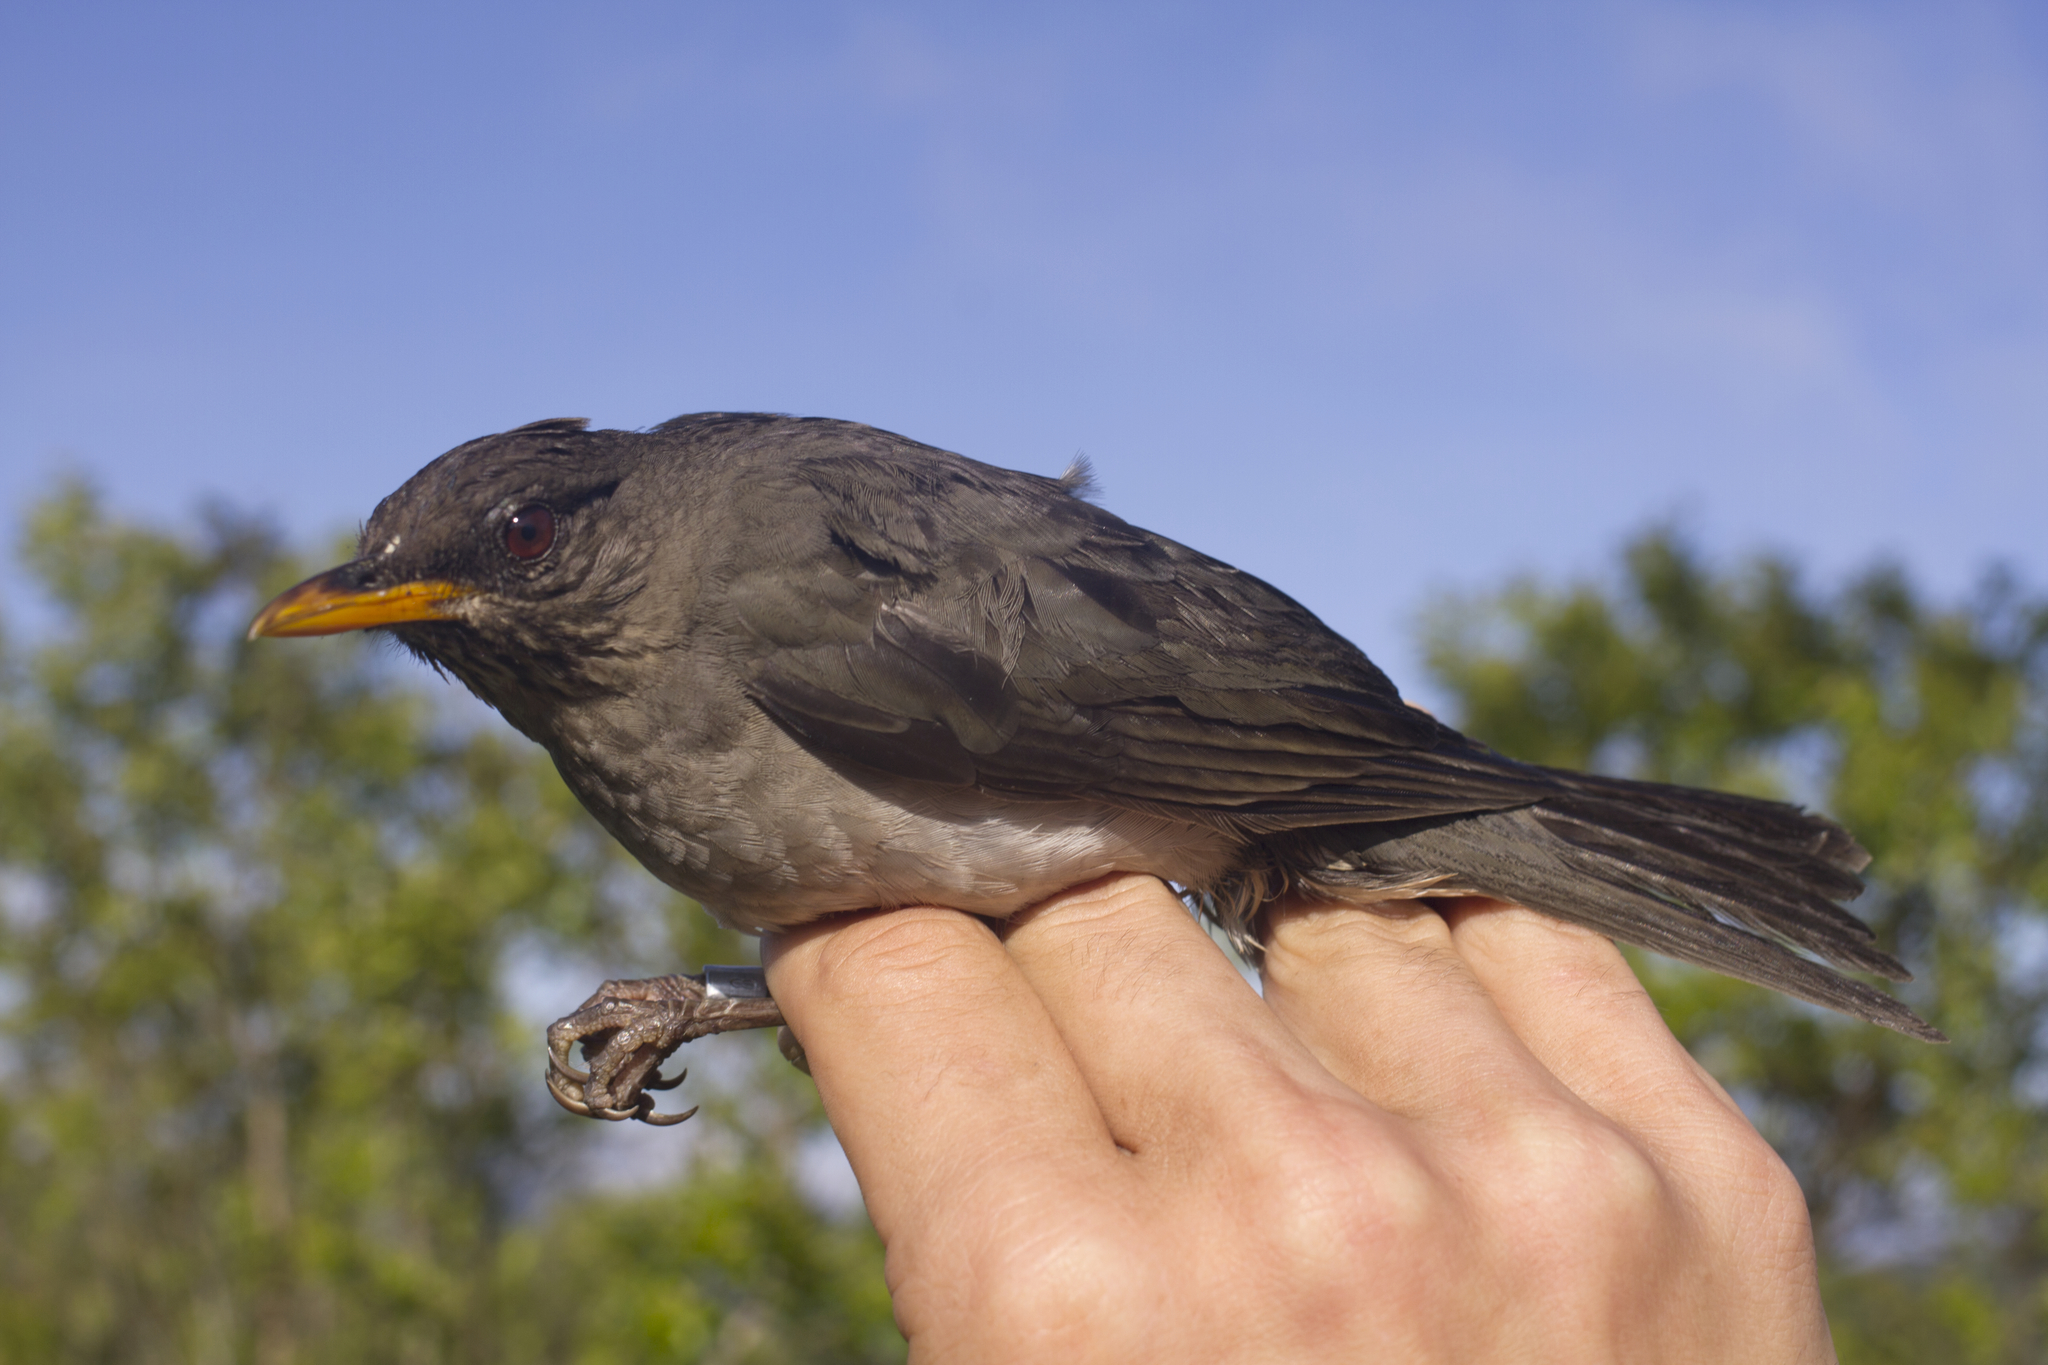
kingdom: Animalia
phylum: Chordata
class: Aves
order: Passeriformes
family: Turdidae
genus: Turdus
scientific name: Turdus pelios
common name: African thrush
